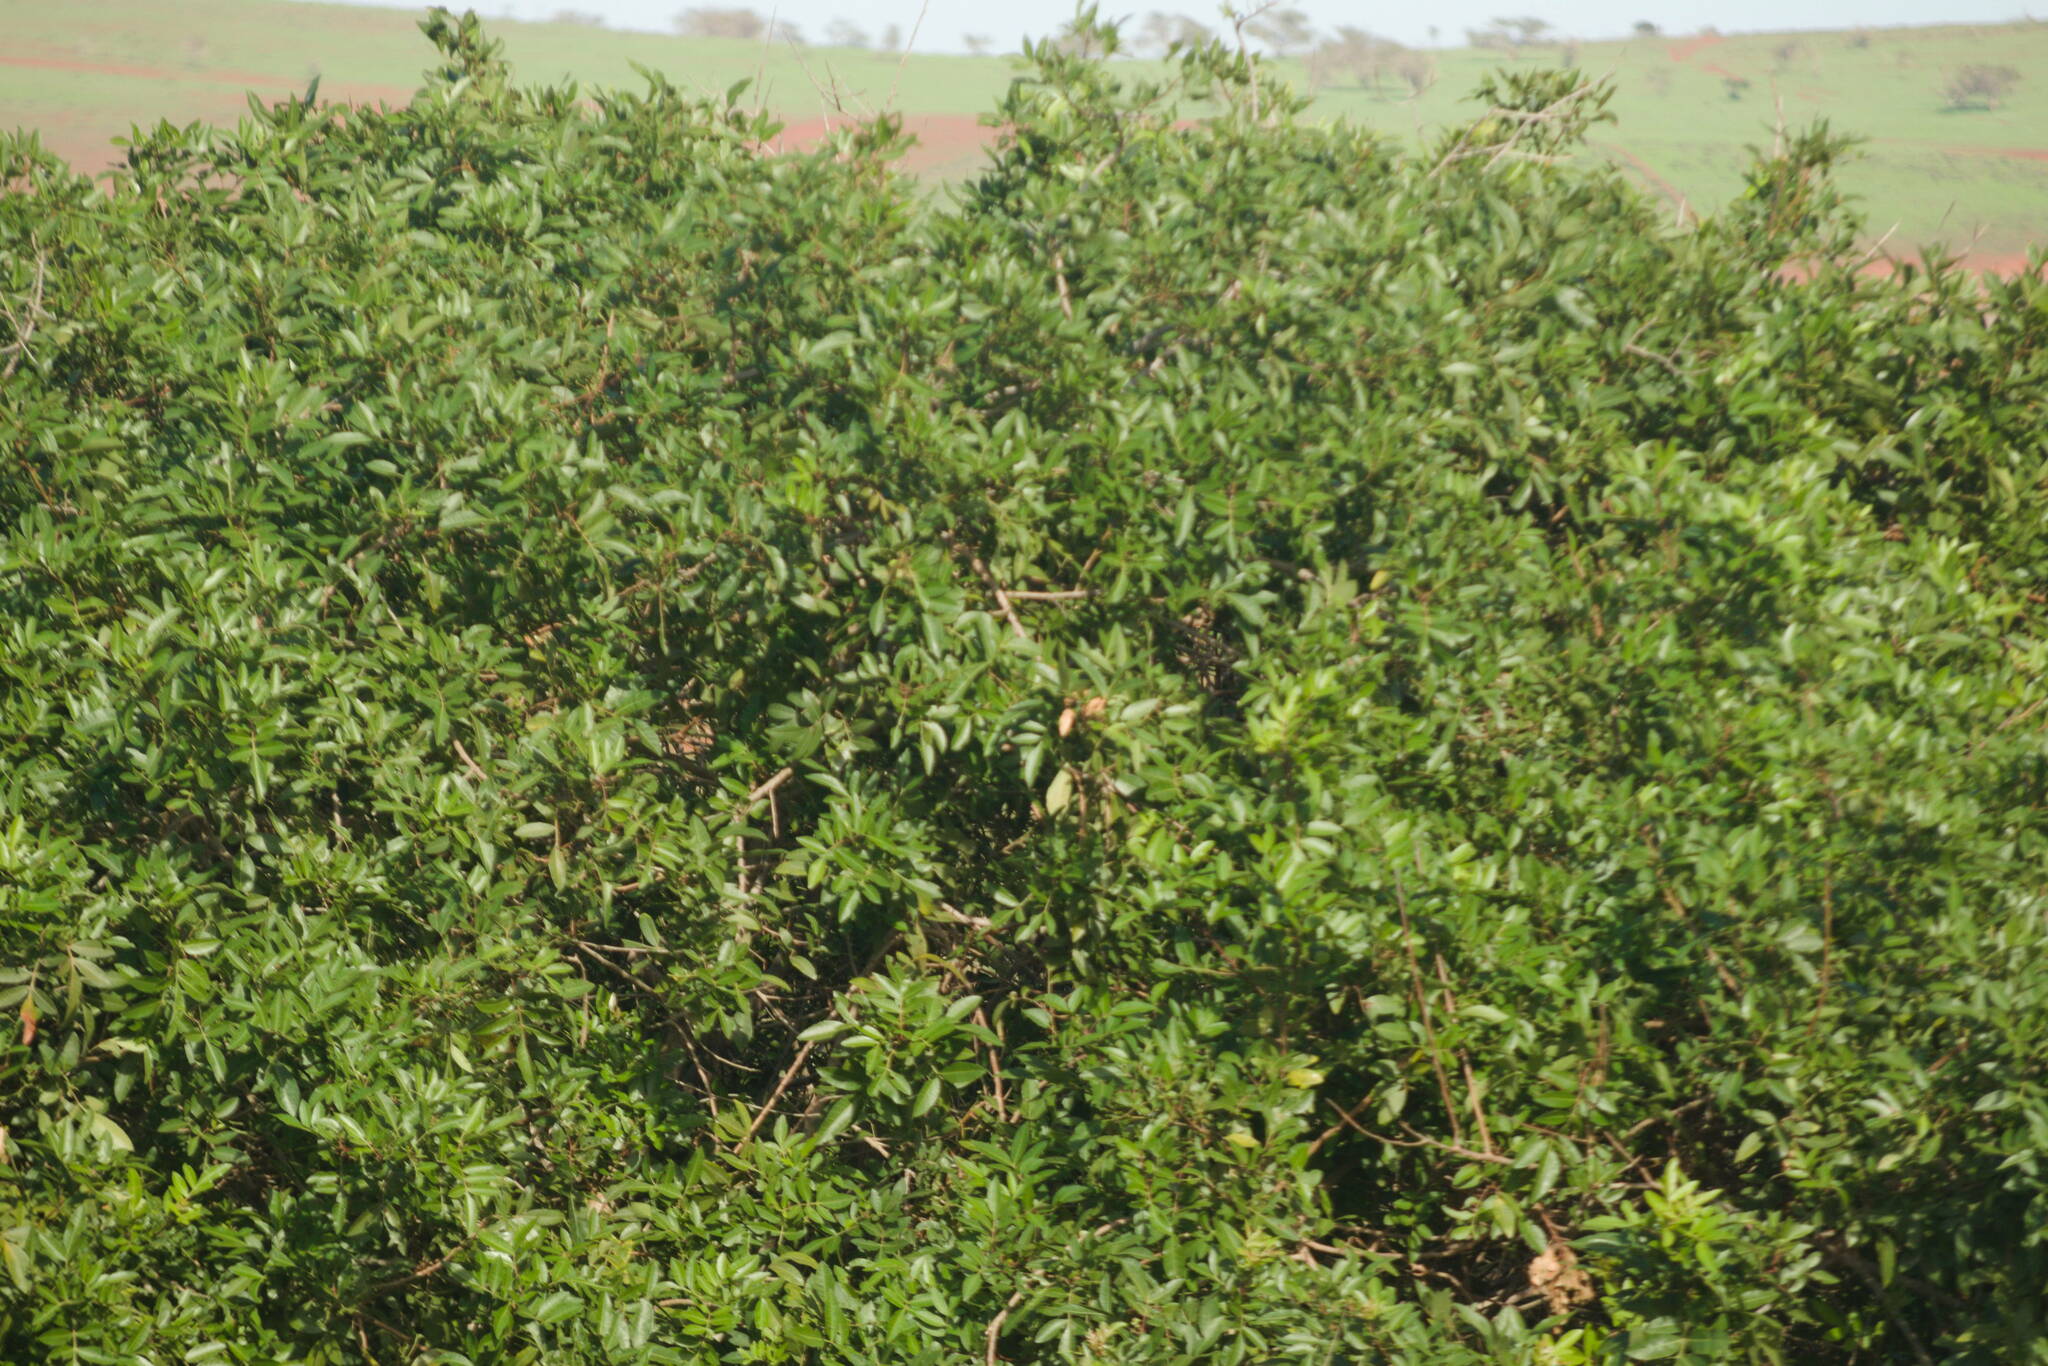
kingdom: Plantae
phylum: Tracheophyta
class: Magnoliopsida
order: Sapindales
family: Anacardiaceae
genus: Schinus
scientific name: Schinus terebinthifolia
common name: Brazilian peppertree
